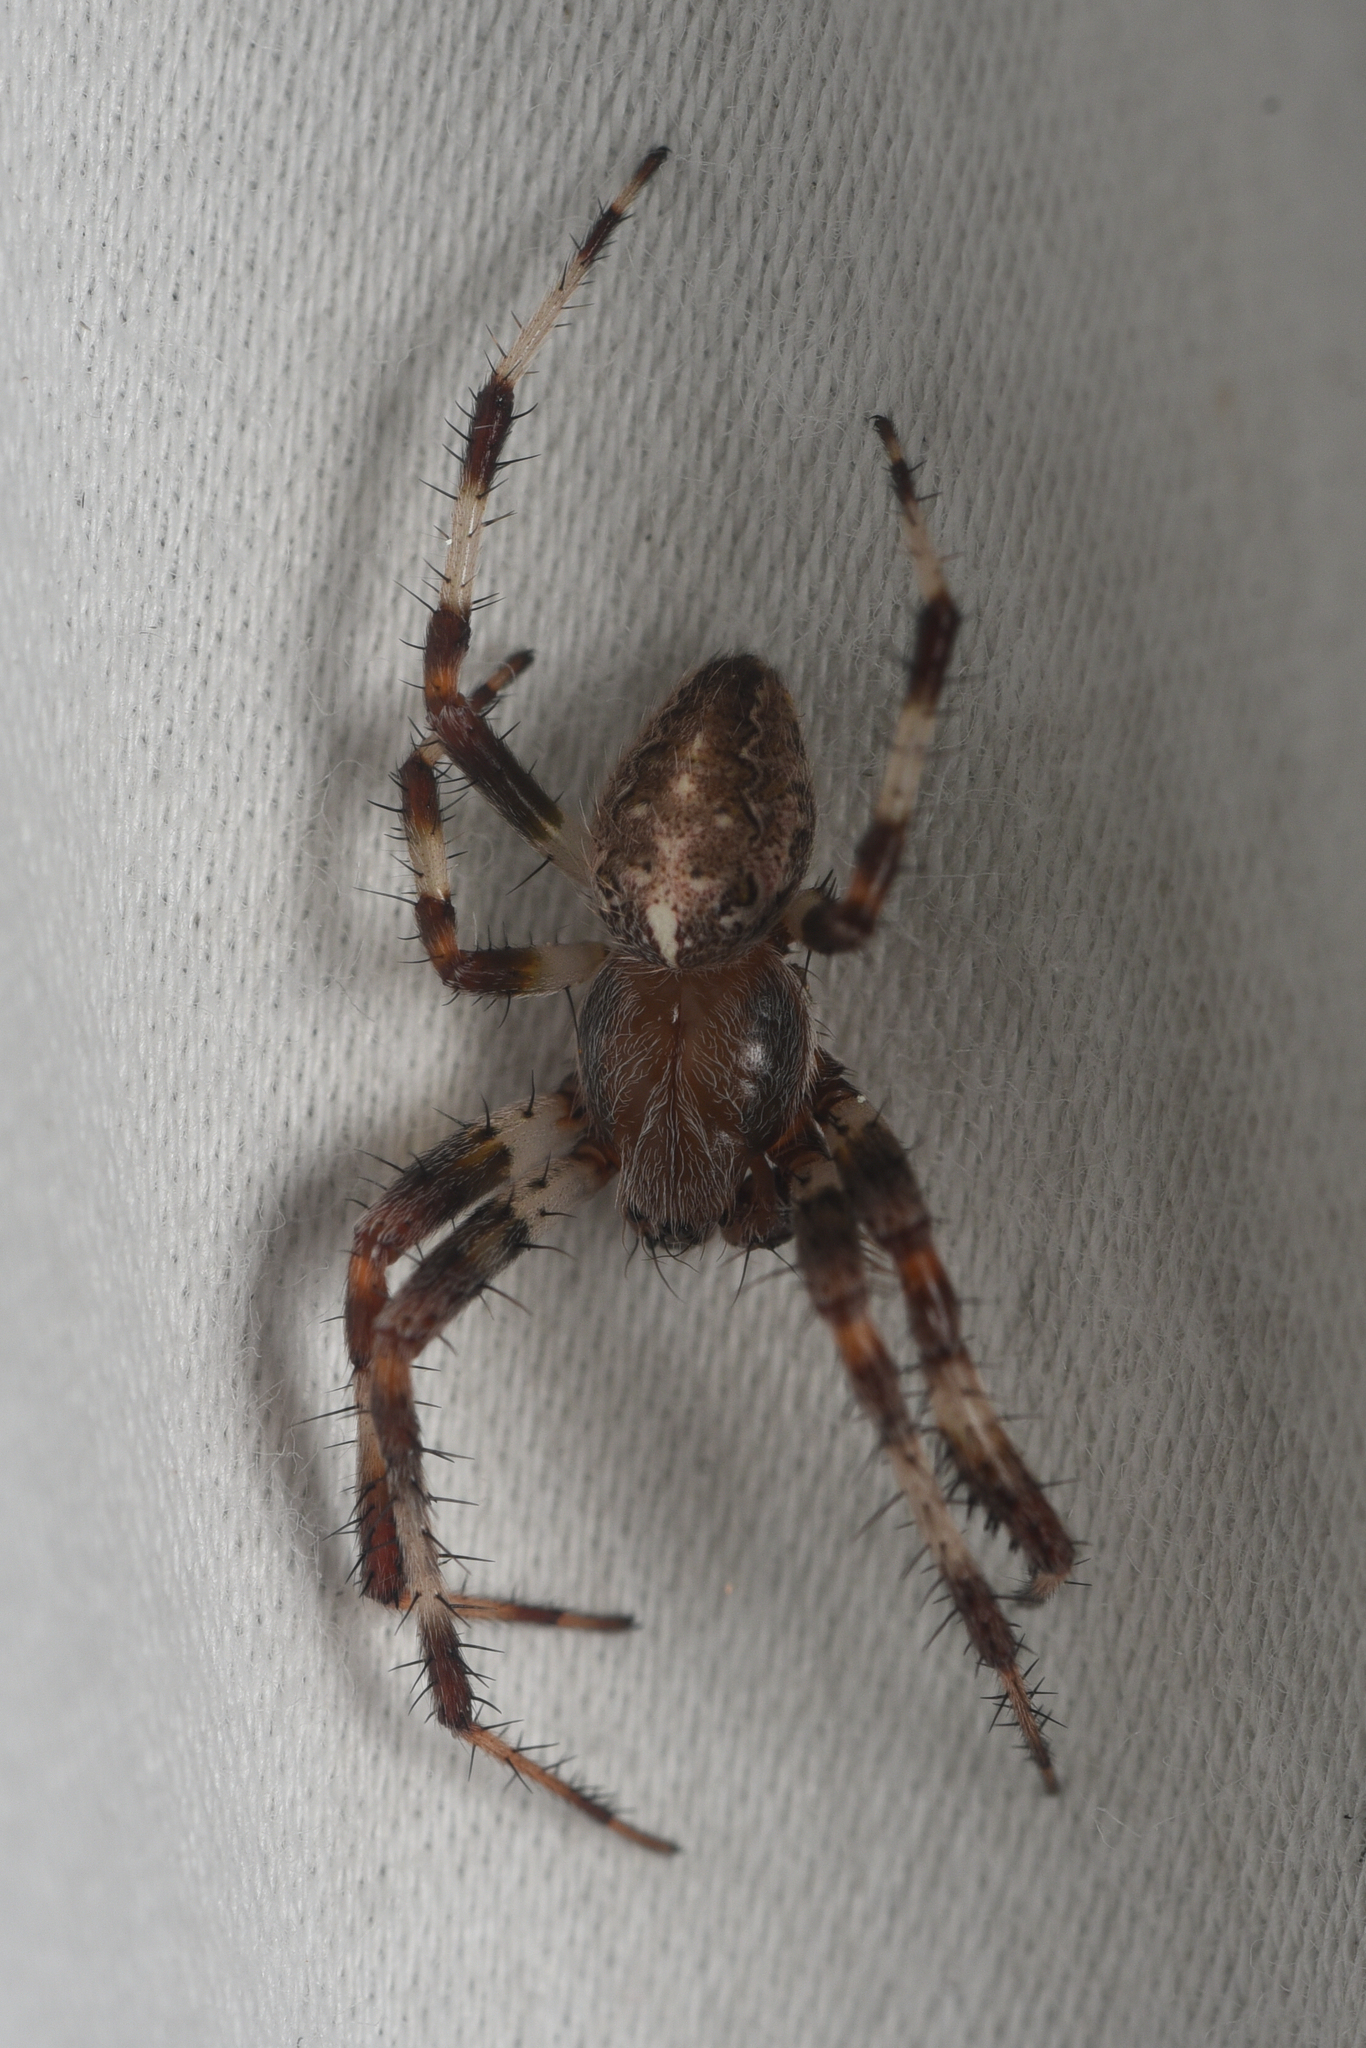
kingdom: Animalia
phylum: Arthropoda
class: Arachnida
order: Araneae
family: Araneidae
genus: Araneus
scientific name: Araneus marmoreus
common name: Marbled orbweaver
